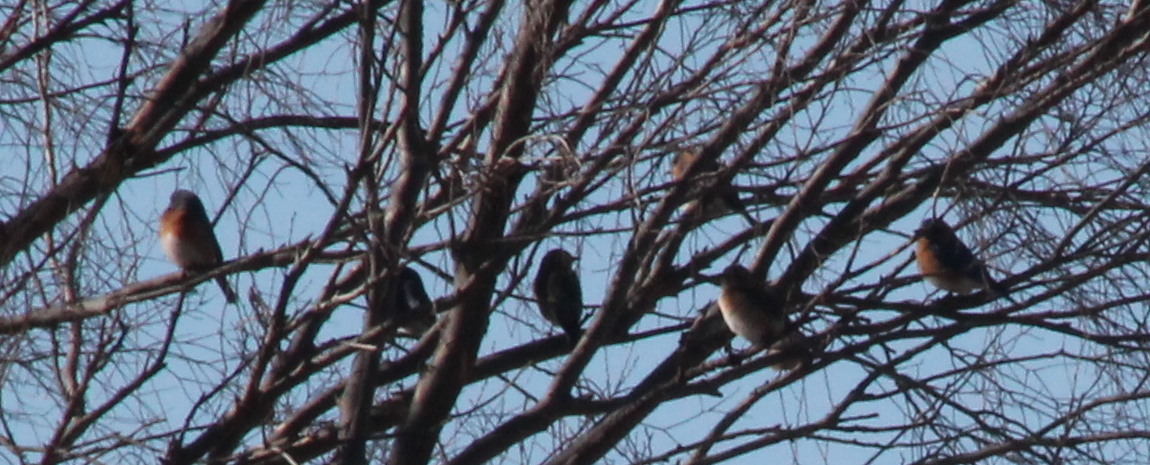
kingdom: Animalia
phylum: Chordata
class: Aves
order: Passeriformes
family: Turdidae
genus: Sialia
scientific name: Sialia sialis
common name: Eastern bluebird
